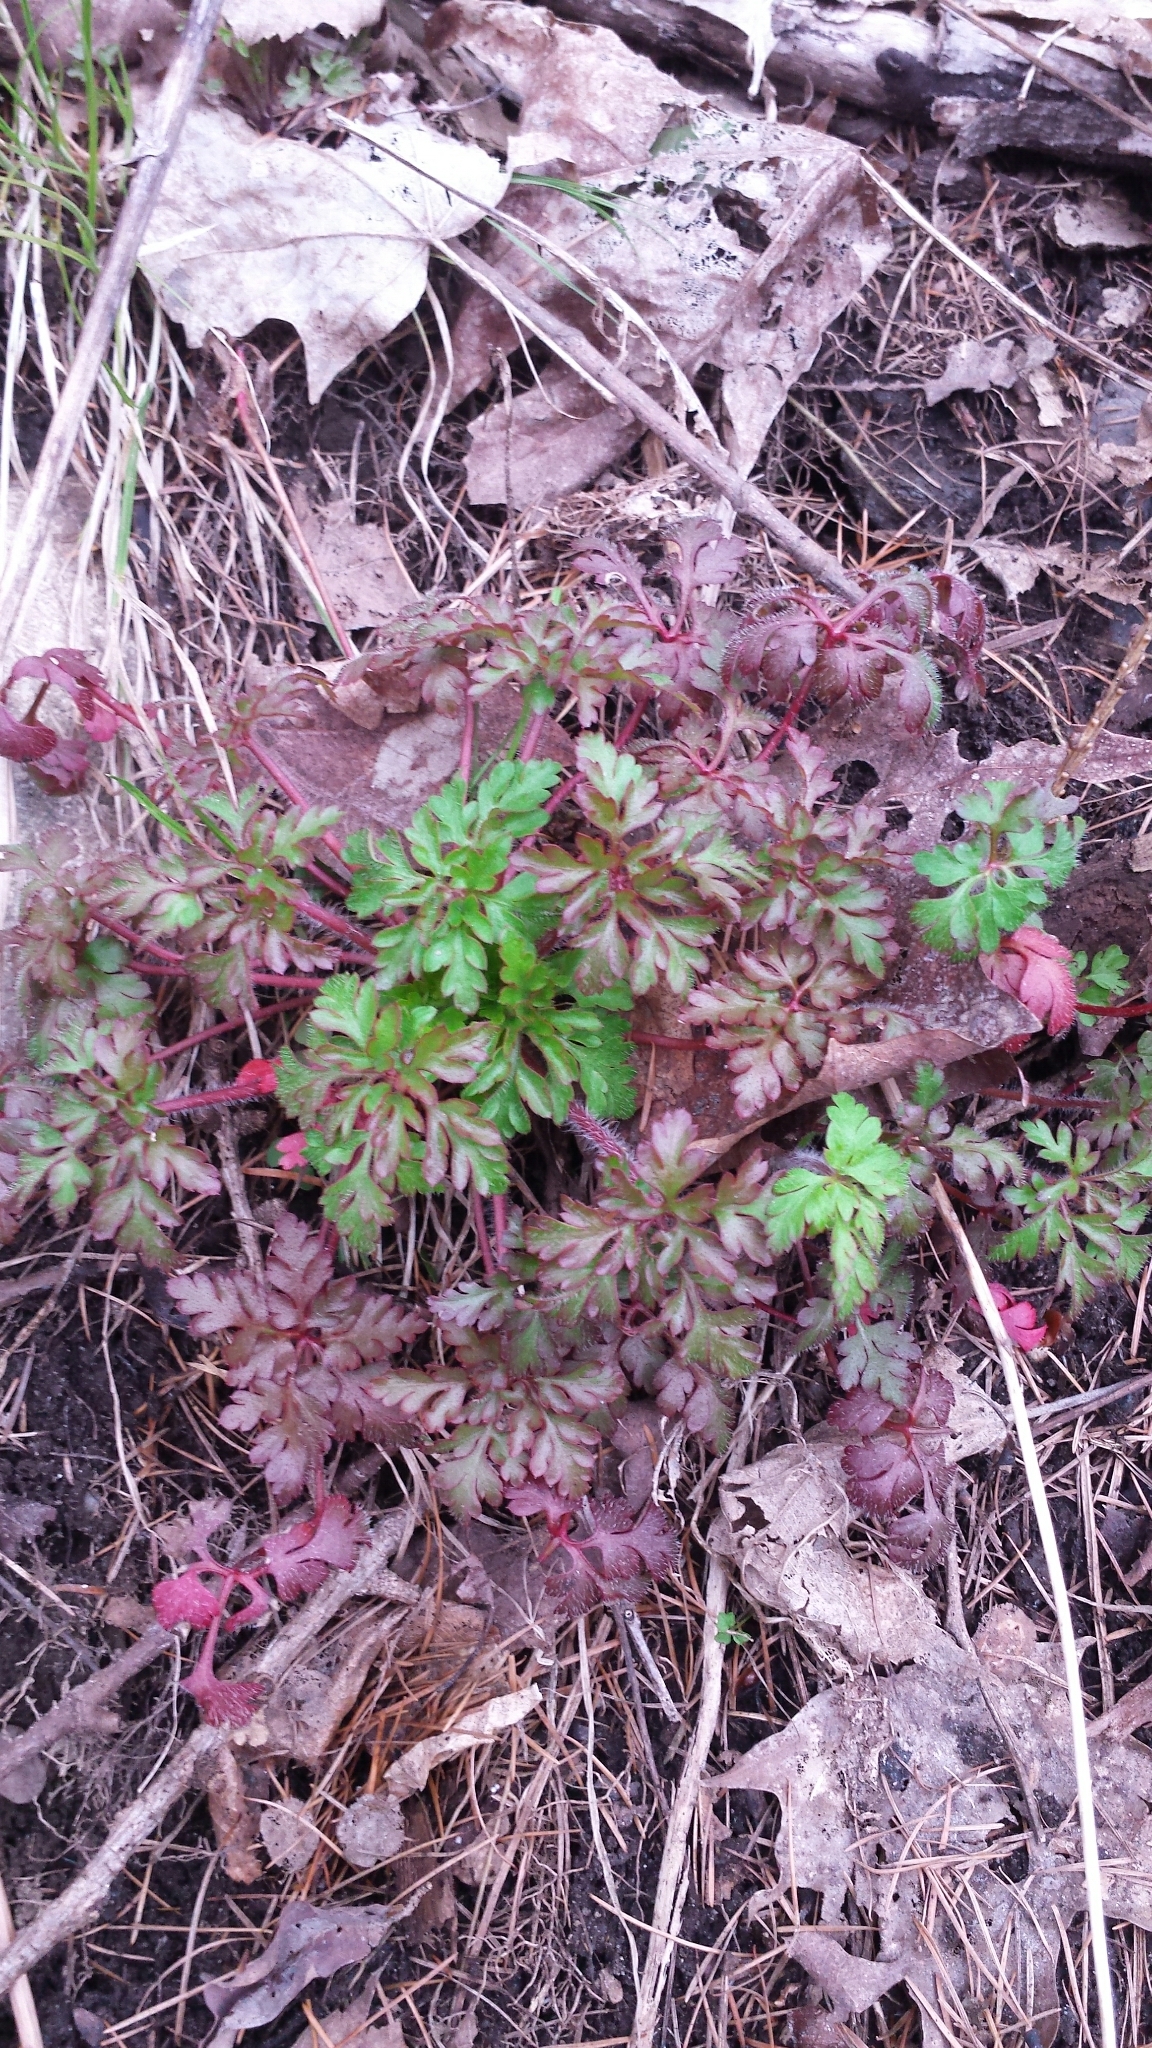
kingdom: Plantae
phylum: Tracheophyta
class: Magnoliopsida
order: Geraniales
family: Geraniaceae
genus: Geranium
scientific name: Geranium robertianum
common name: Herb-robert
